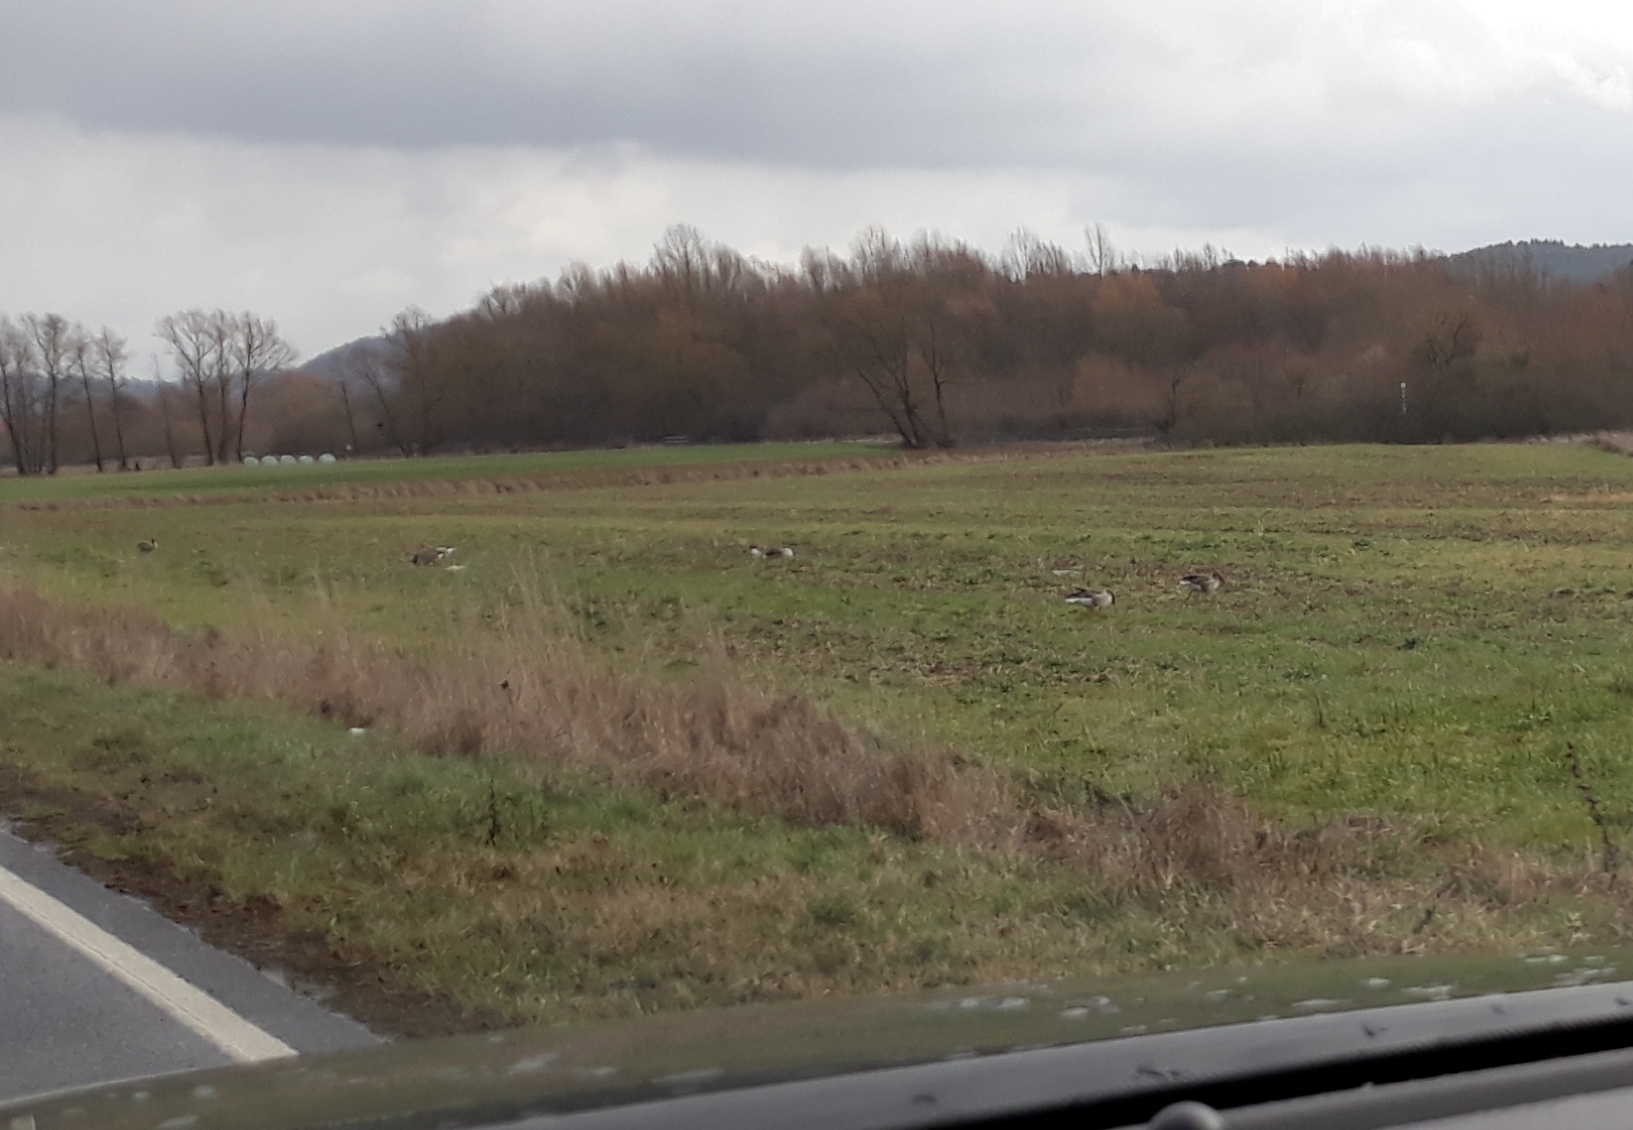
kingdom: Animalia
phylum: Chordata
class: Aves
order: Anseriformes
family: Anatidae
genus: Anser
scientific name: Anser anser
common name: Greylag goose
